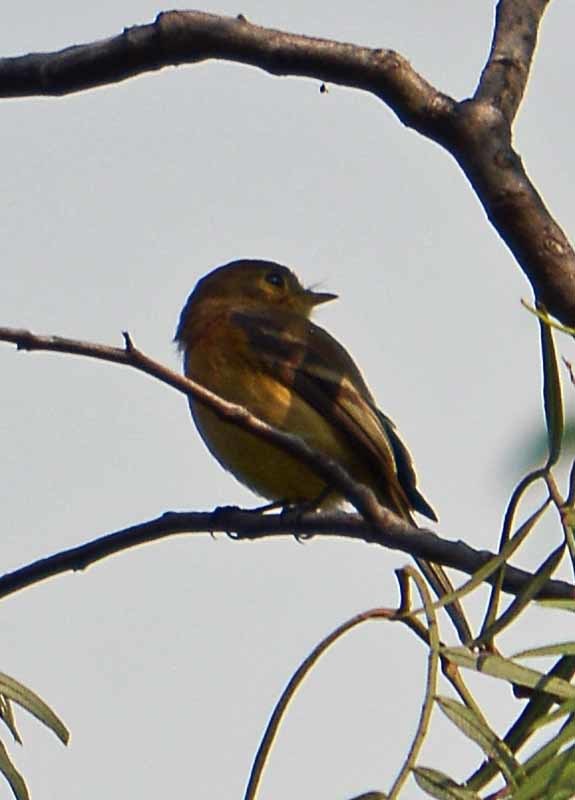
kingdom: Animalia
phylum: Chordata
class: Aves
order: Passeriformes
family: Tyrannidae
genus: Empidonax
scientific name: Empidonax fulvifrons
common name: Buff-breasted flycatcher
